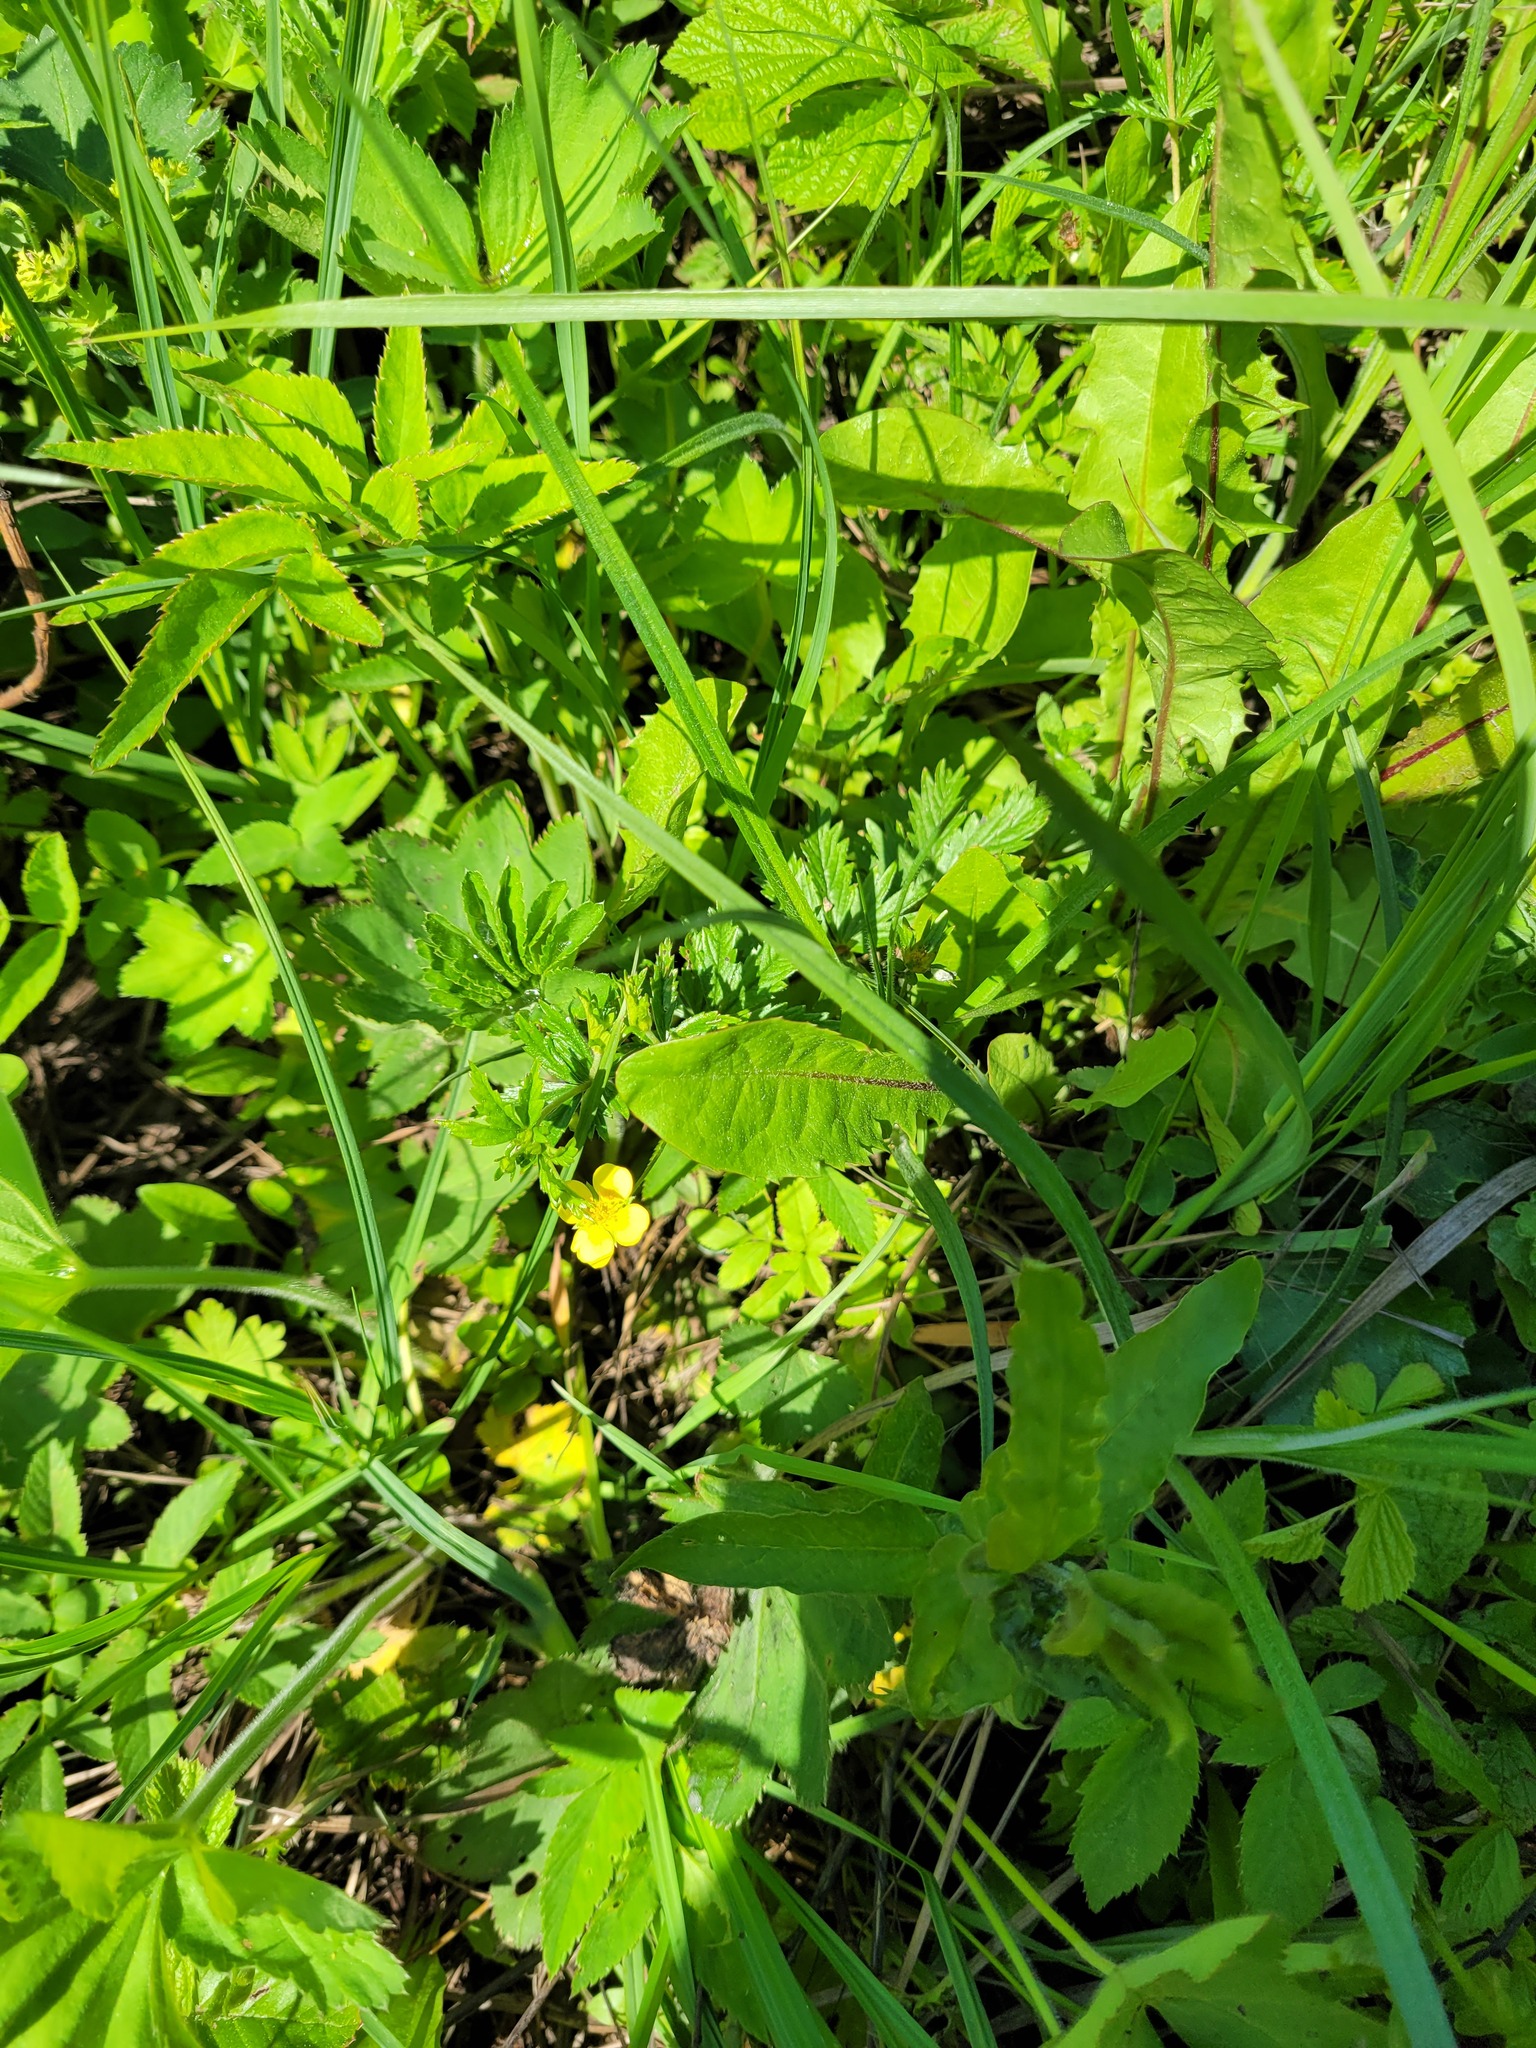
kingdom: Plantae
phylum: Tracheophyta
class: Magnoliopsida
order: Rosales
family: Rosaceae
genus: Potentilla
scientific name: Potentilla erecta
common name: Tormentil
